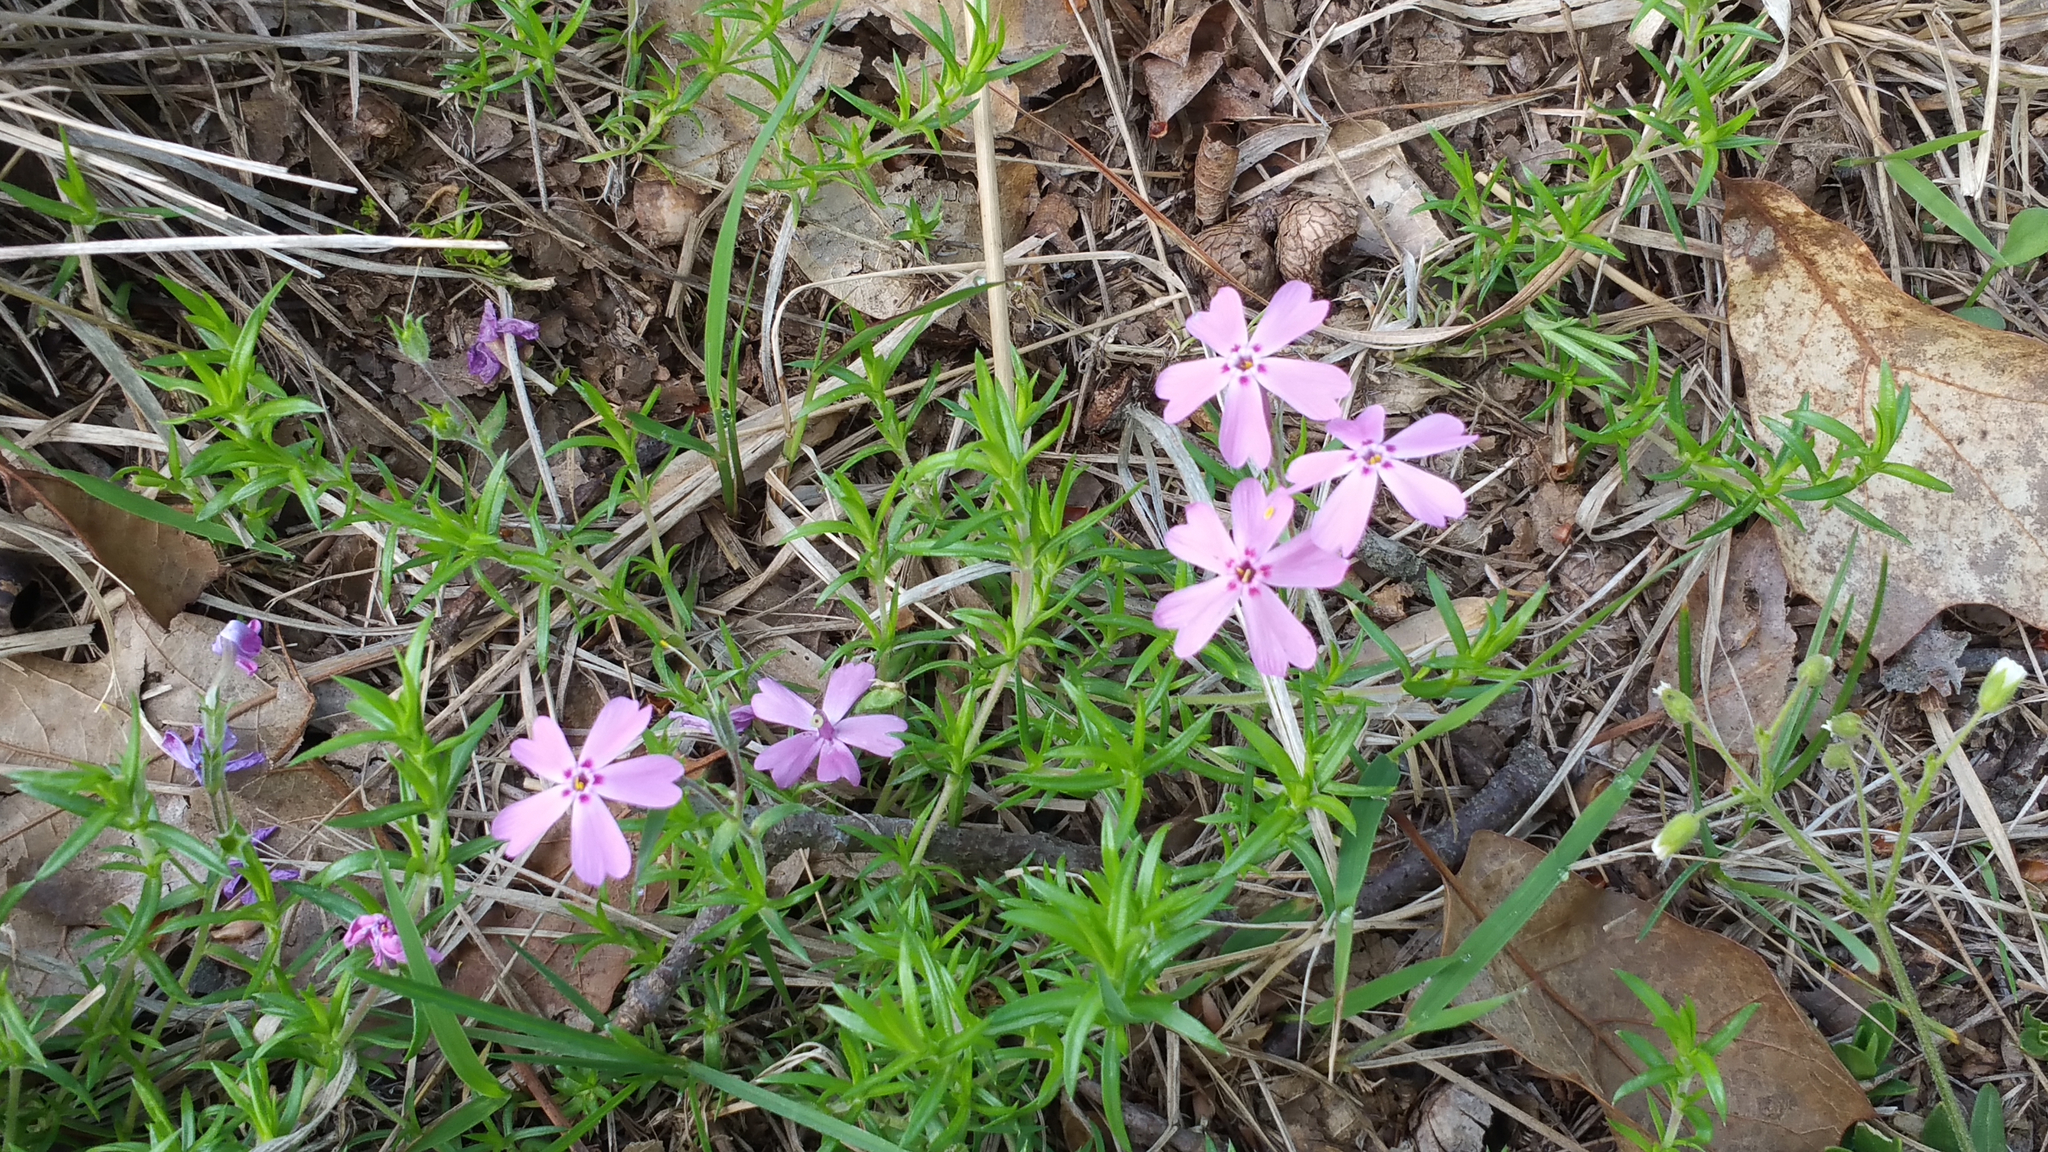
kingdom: Plantae
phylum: Tracheophyta
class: Magnoliopsida
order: Ericales
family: Polemoniaceae
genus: Phlox
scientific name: Phlox subulata
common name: Moss phlox
